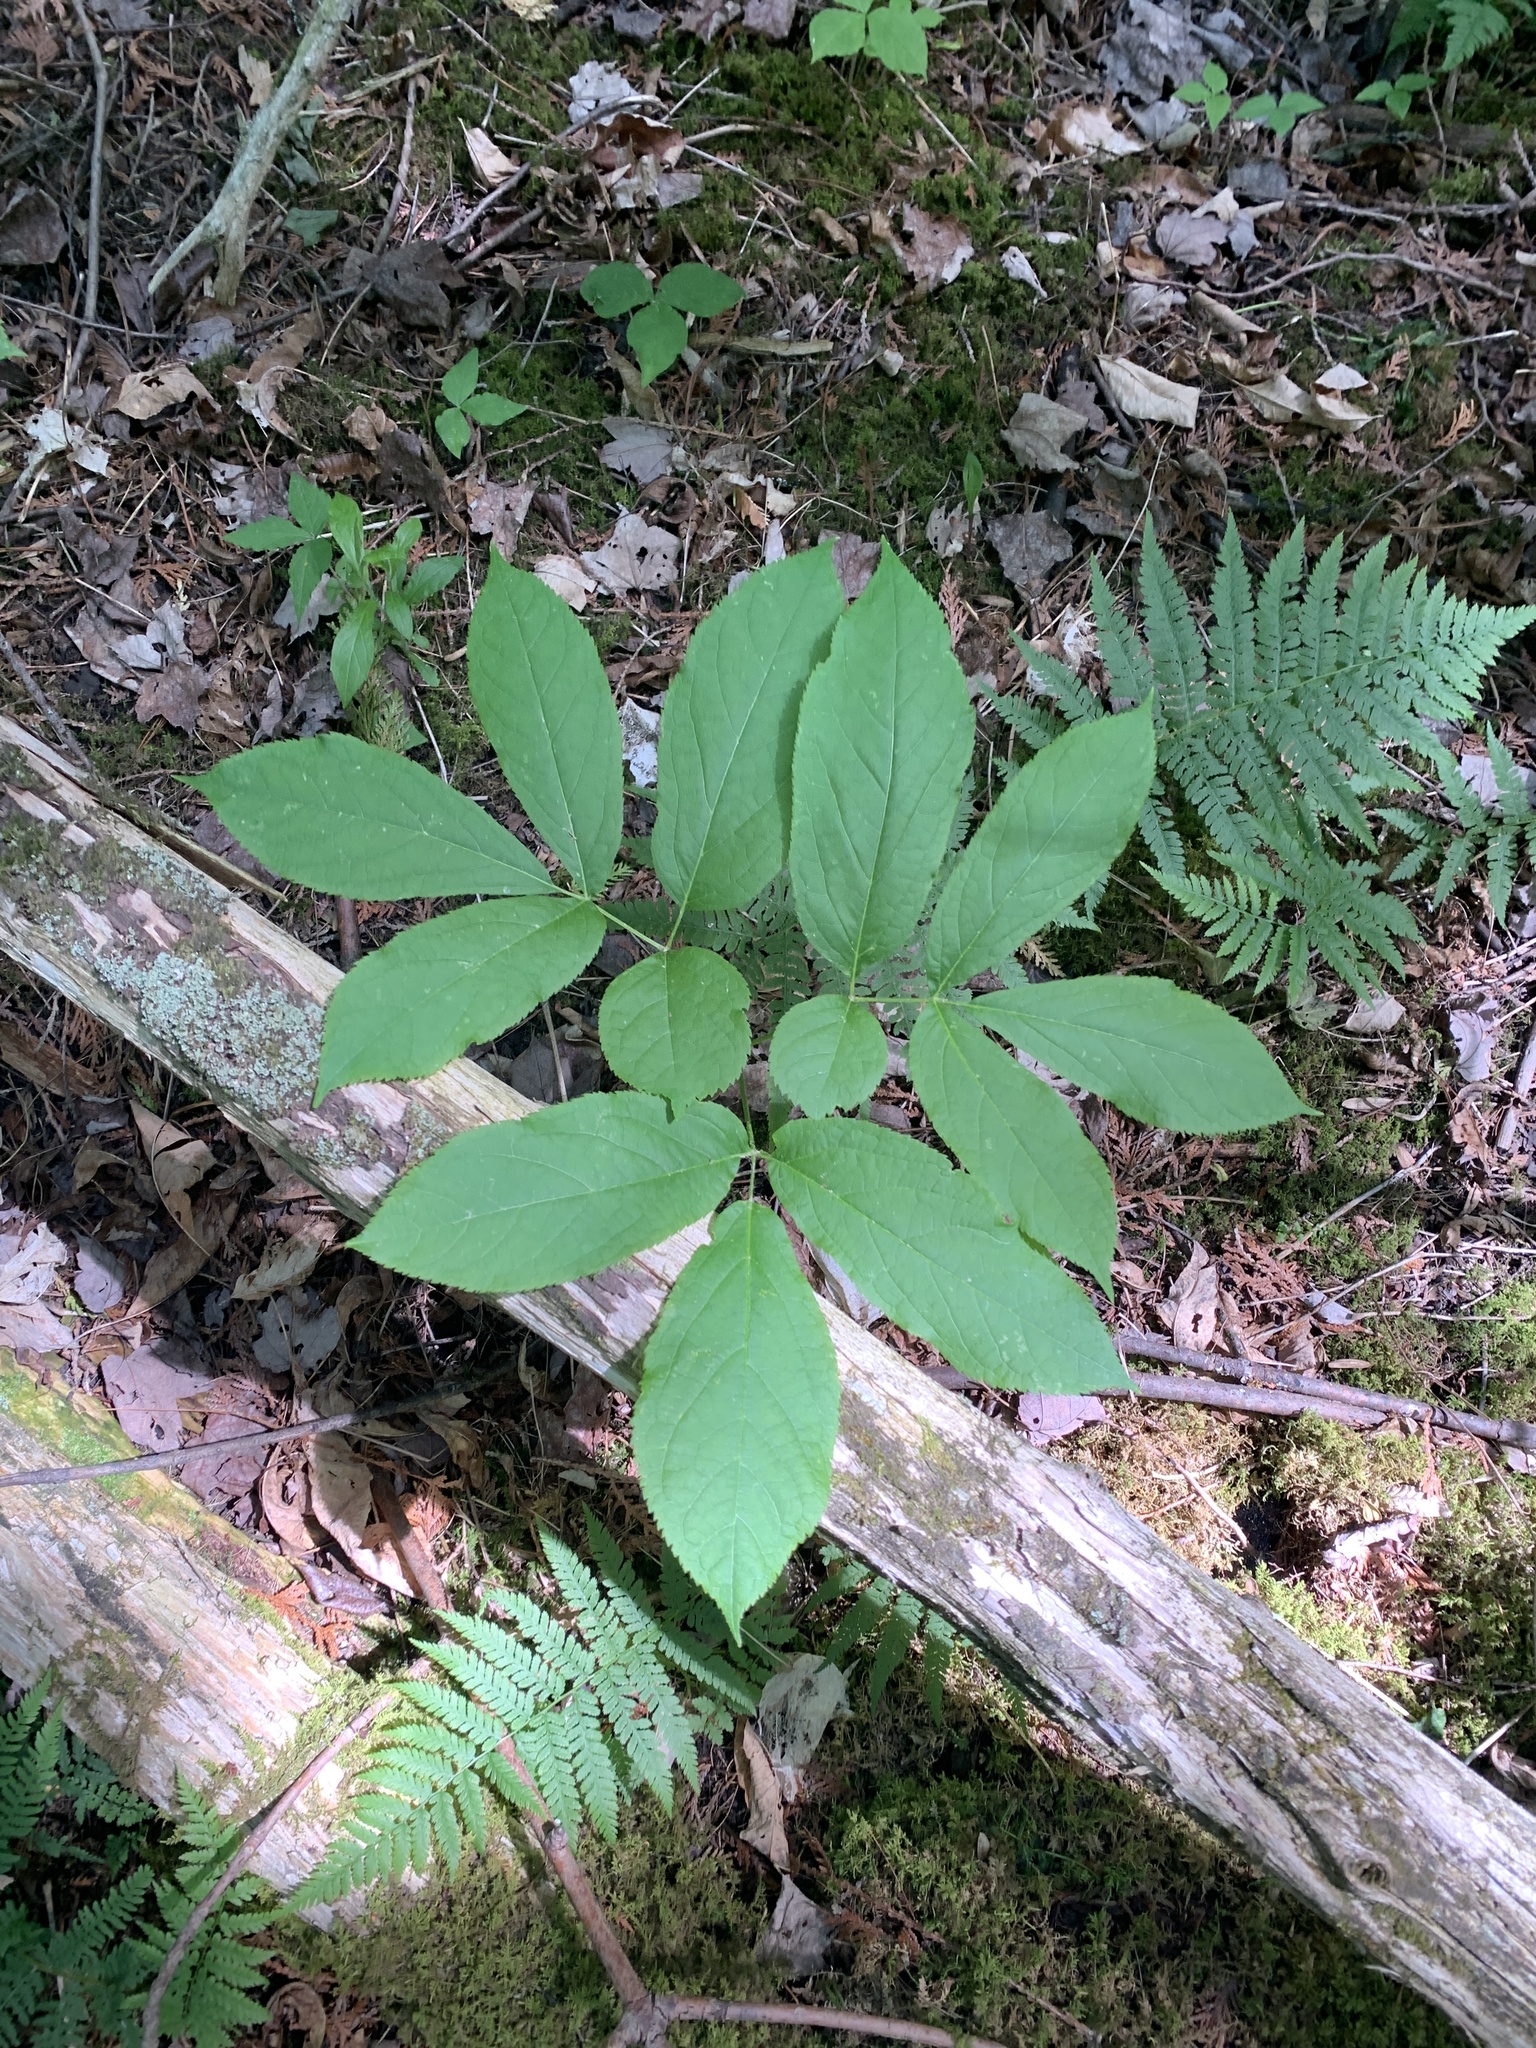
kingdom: Plantae
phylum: Tracheophyta
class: Magnoliopsida
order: Apiales
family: Araliaceae
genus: Aralia
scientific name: Aralia nudicaulis
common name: Wild sarsaparilla
